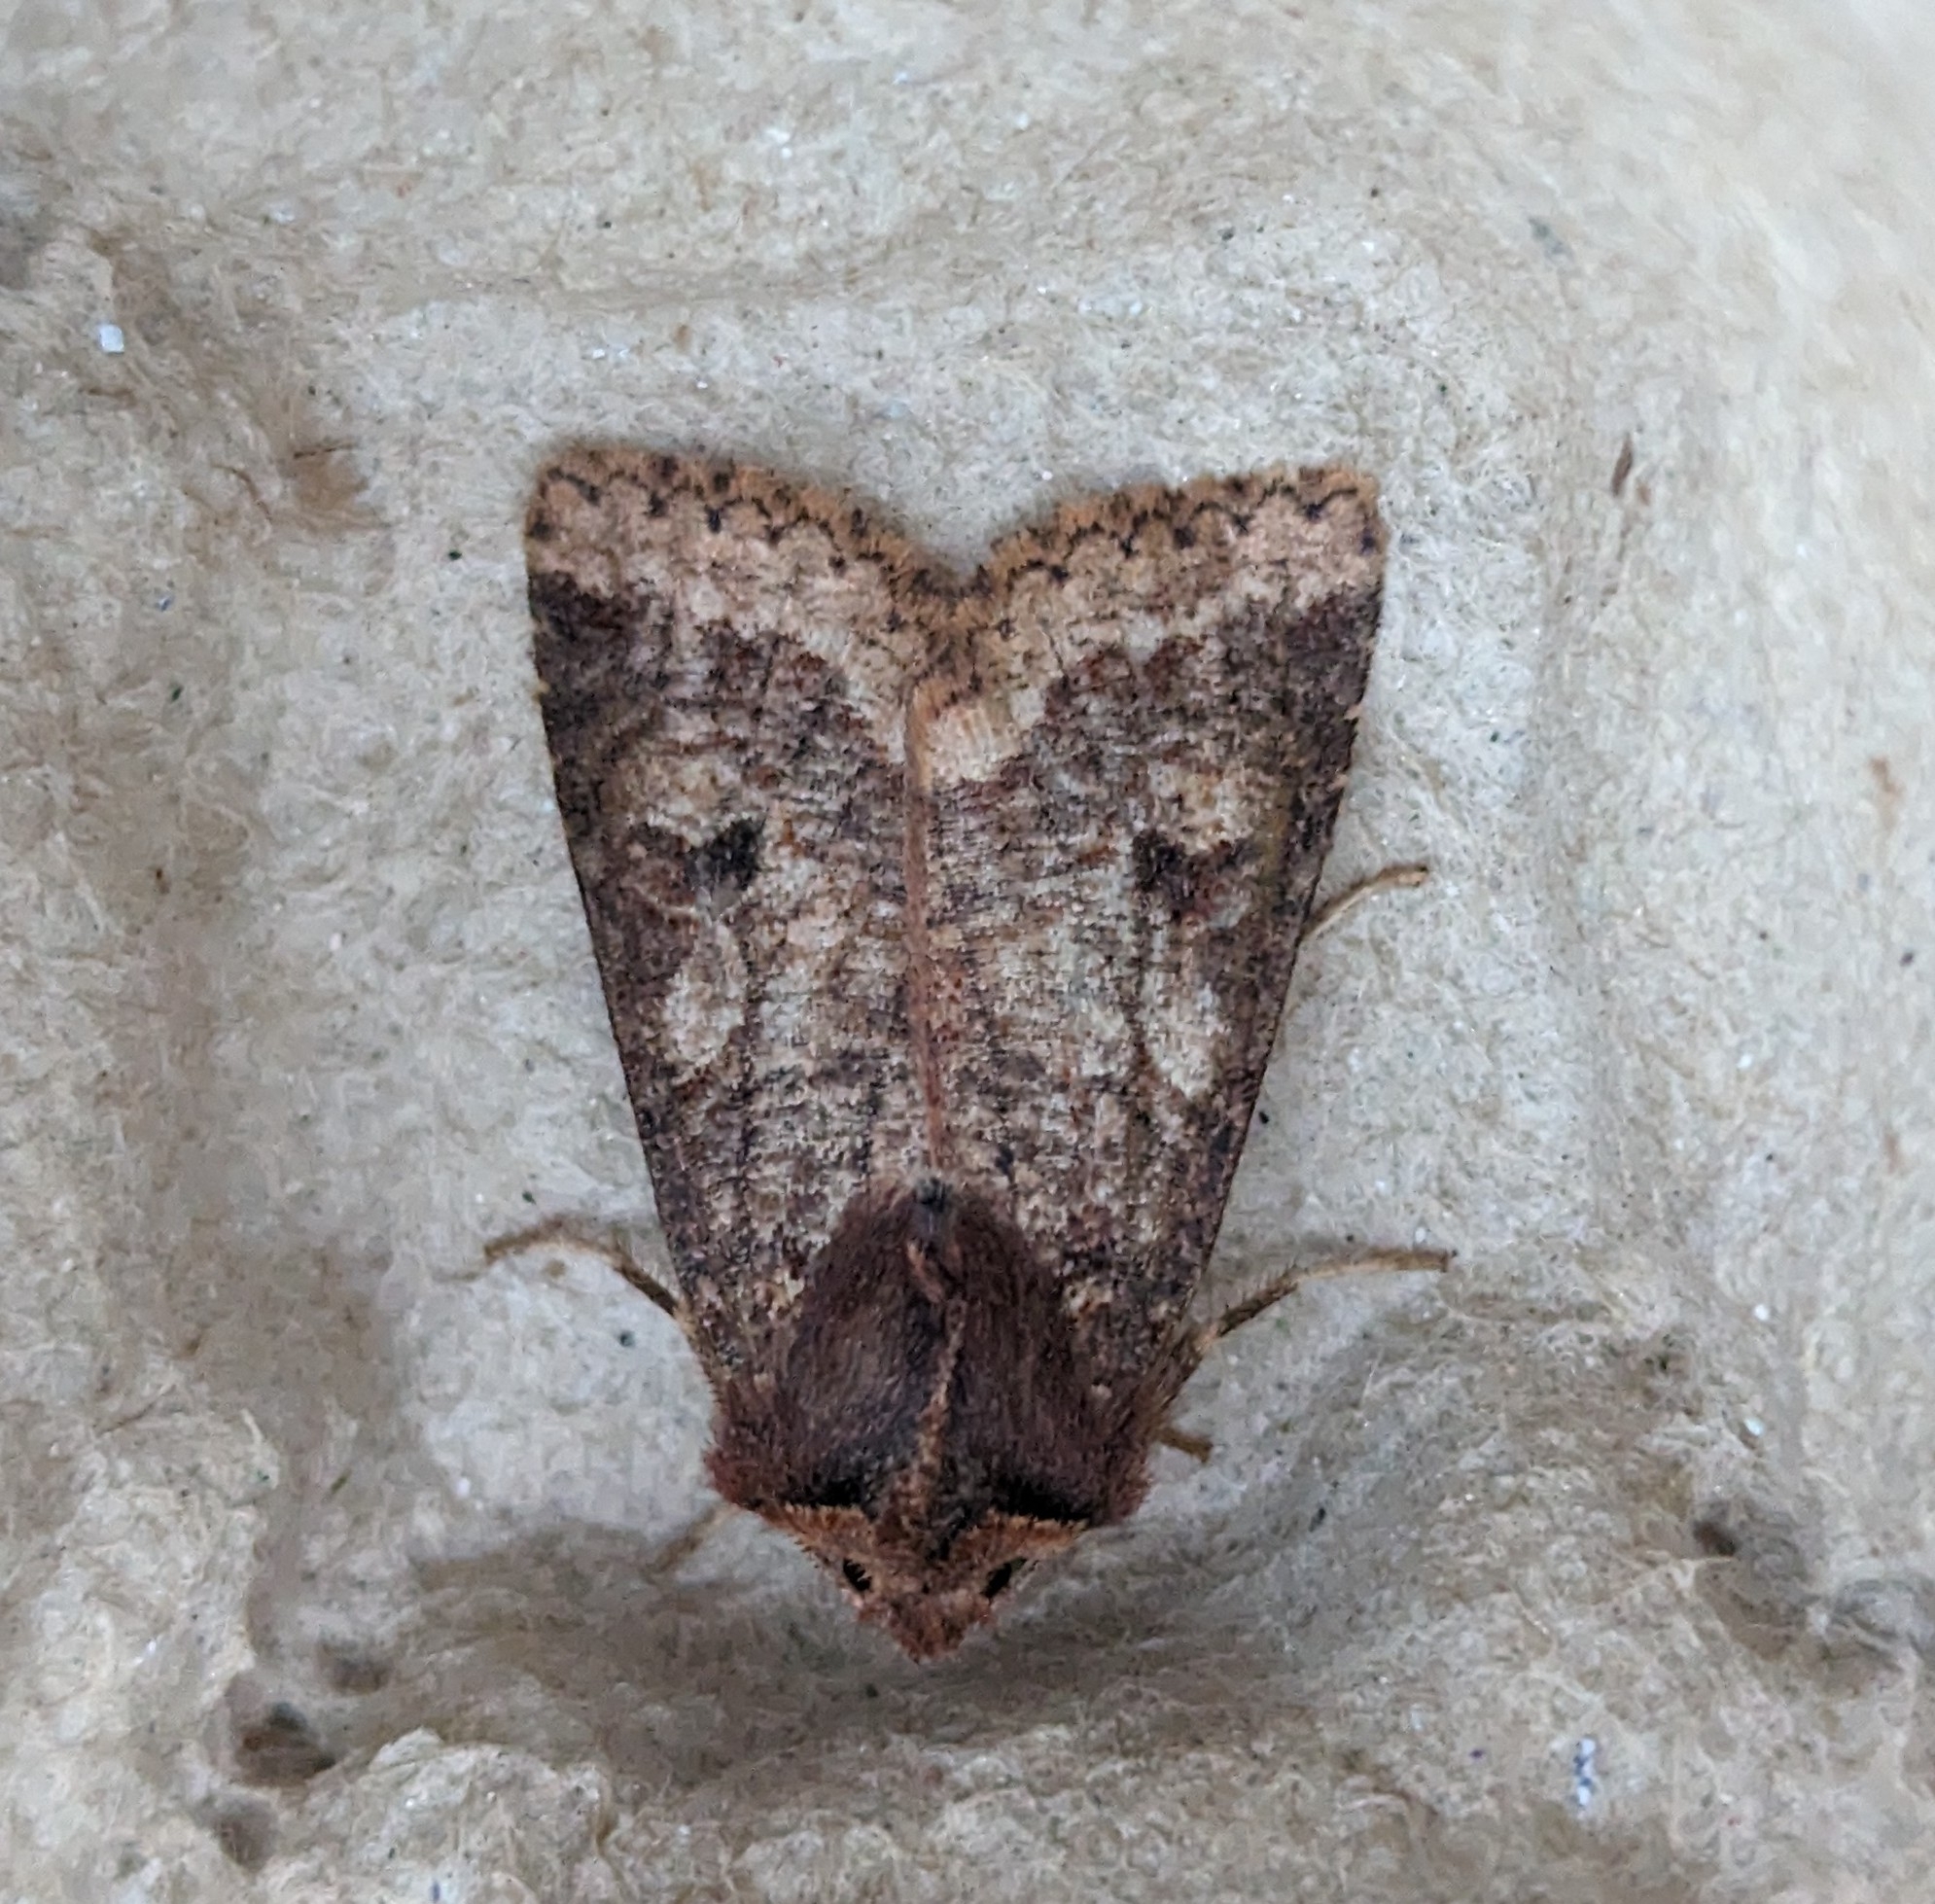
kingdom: Animalia
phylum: Arthropoda
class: Insecta
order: Lepidoptera
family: Noctuidae
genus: Orthosia
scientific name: Orthosia praeses
